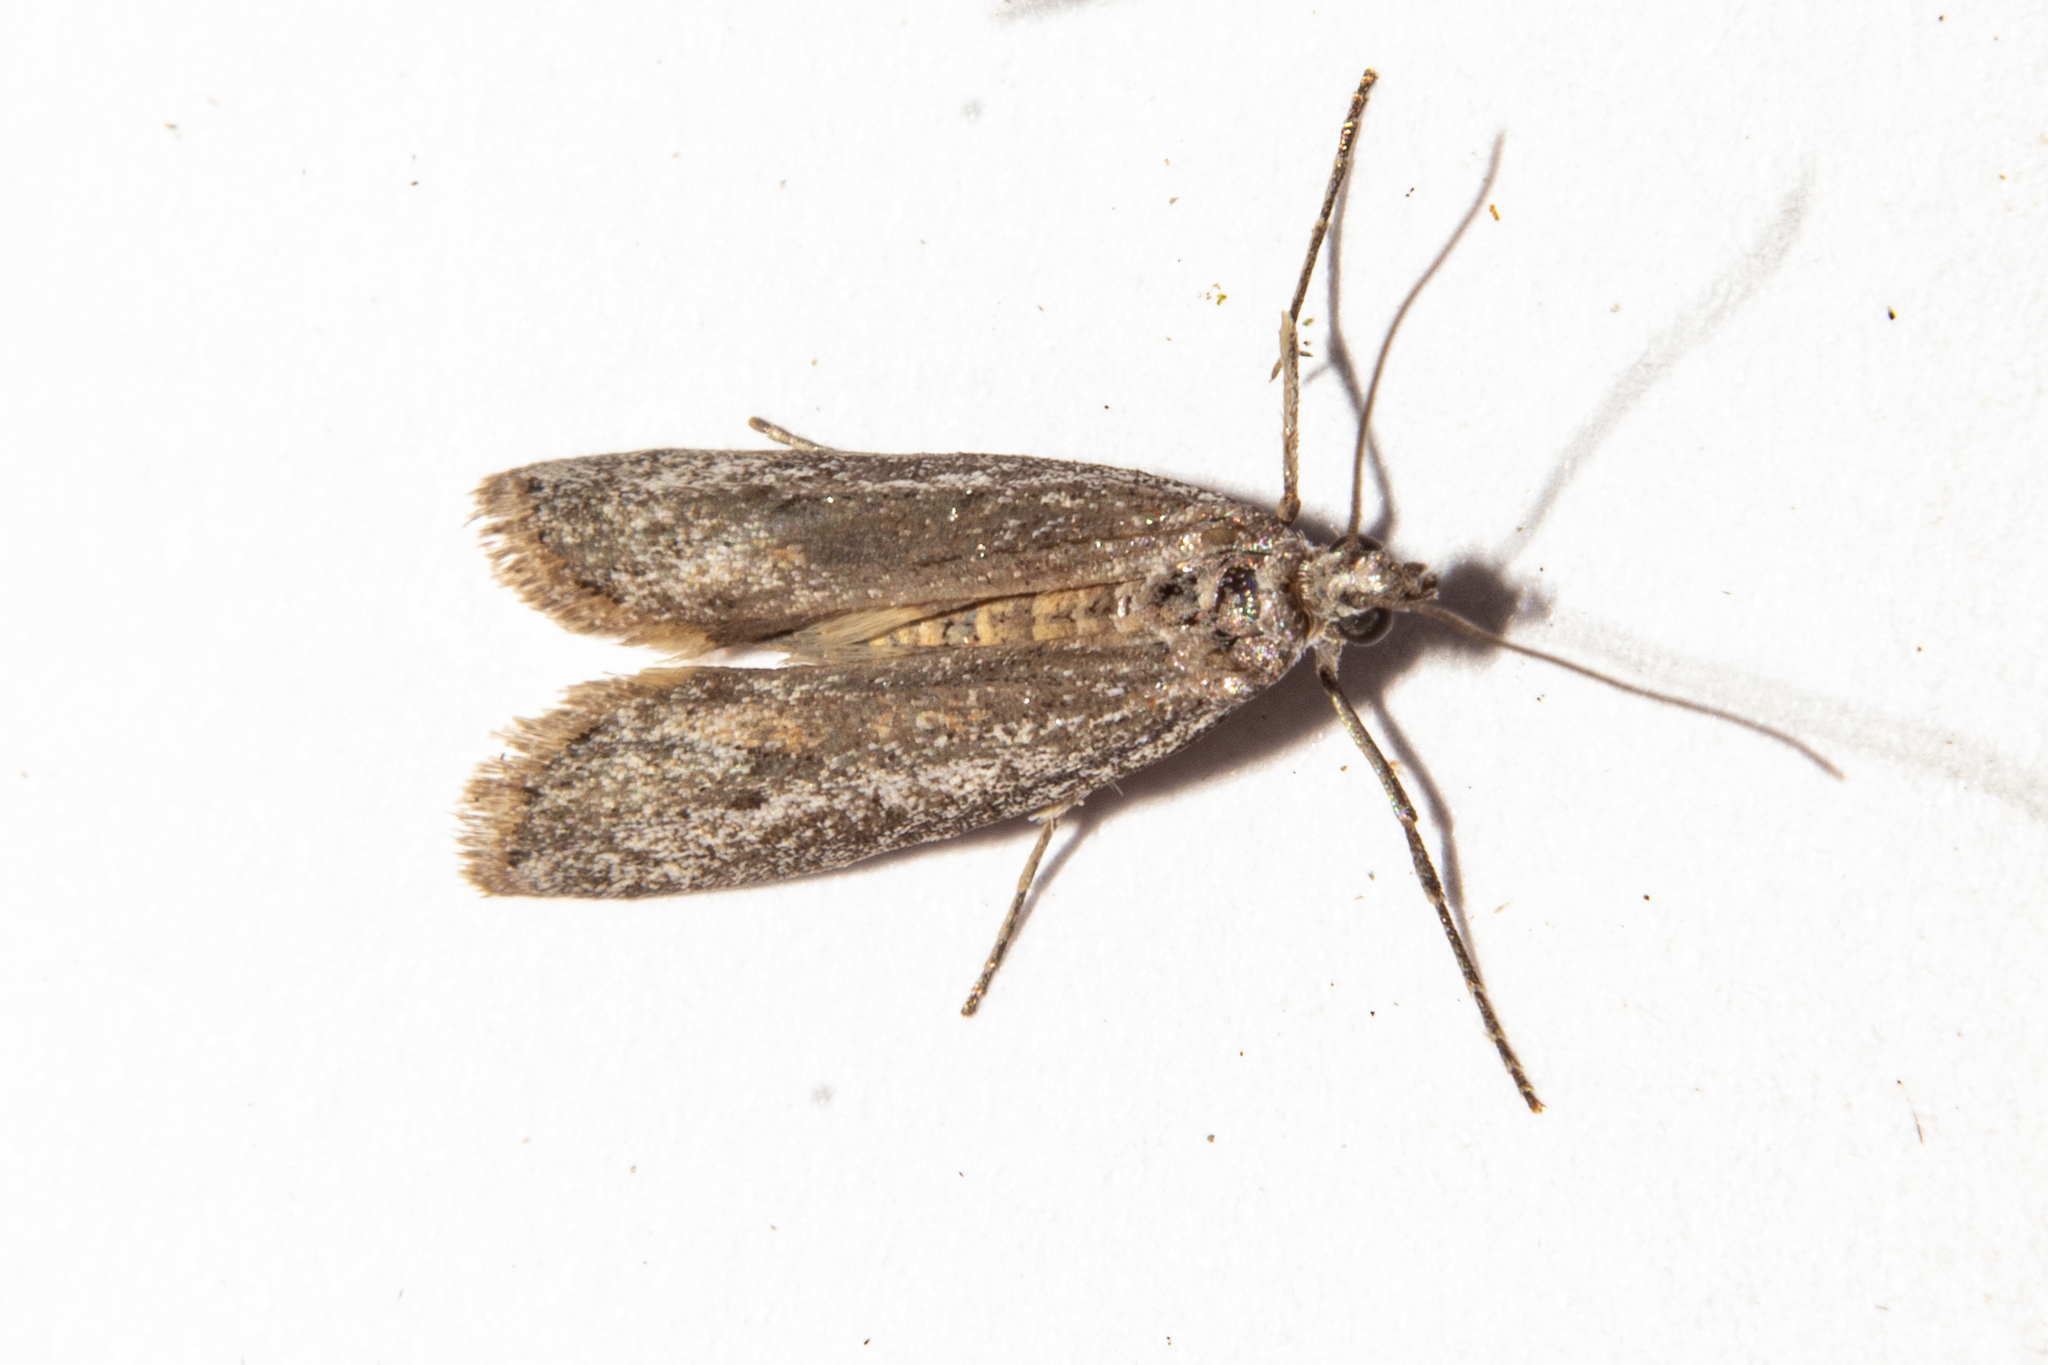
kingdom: Animalia
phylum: Arthropoda
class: Insecta
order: Lepidoptera
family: Pyralidae
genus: Homoeosoma
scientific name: Homoeosoma anaspila
